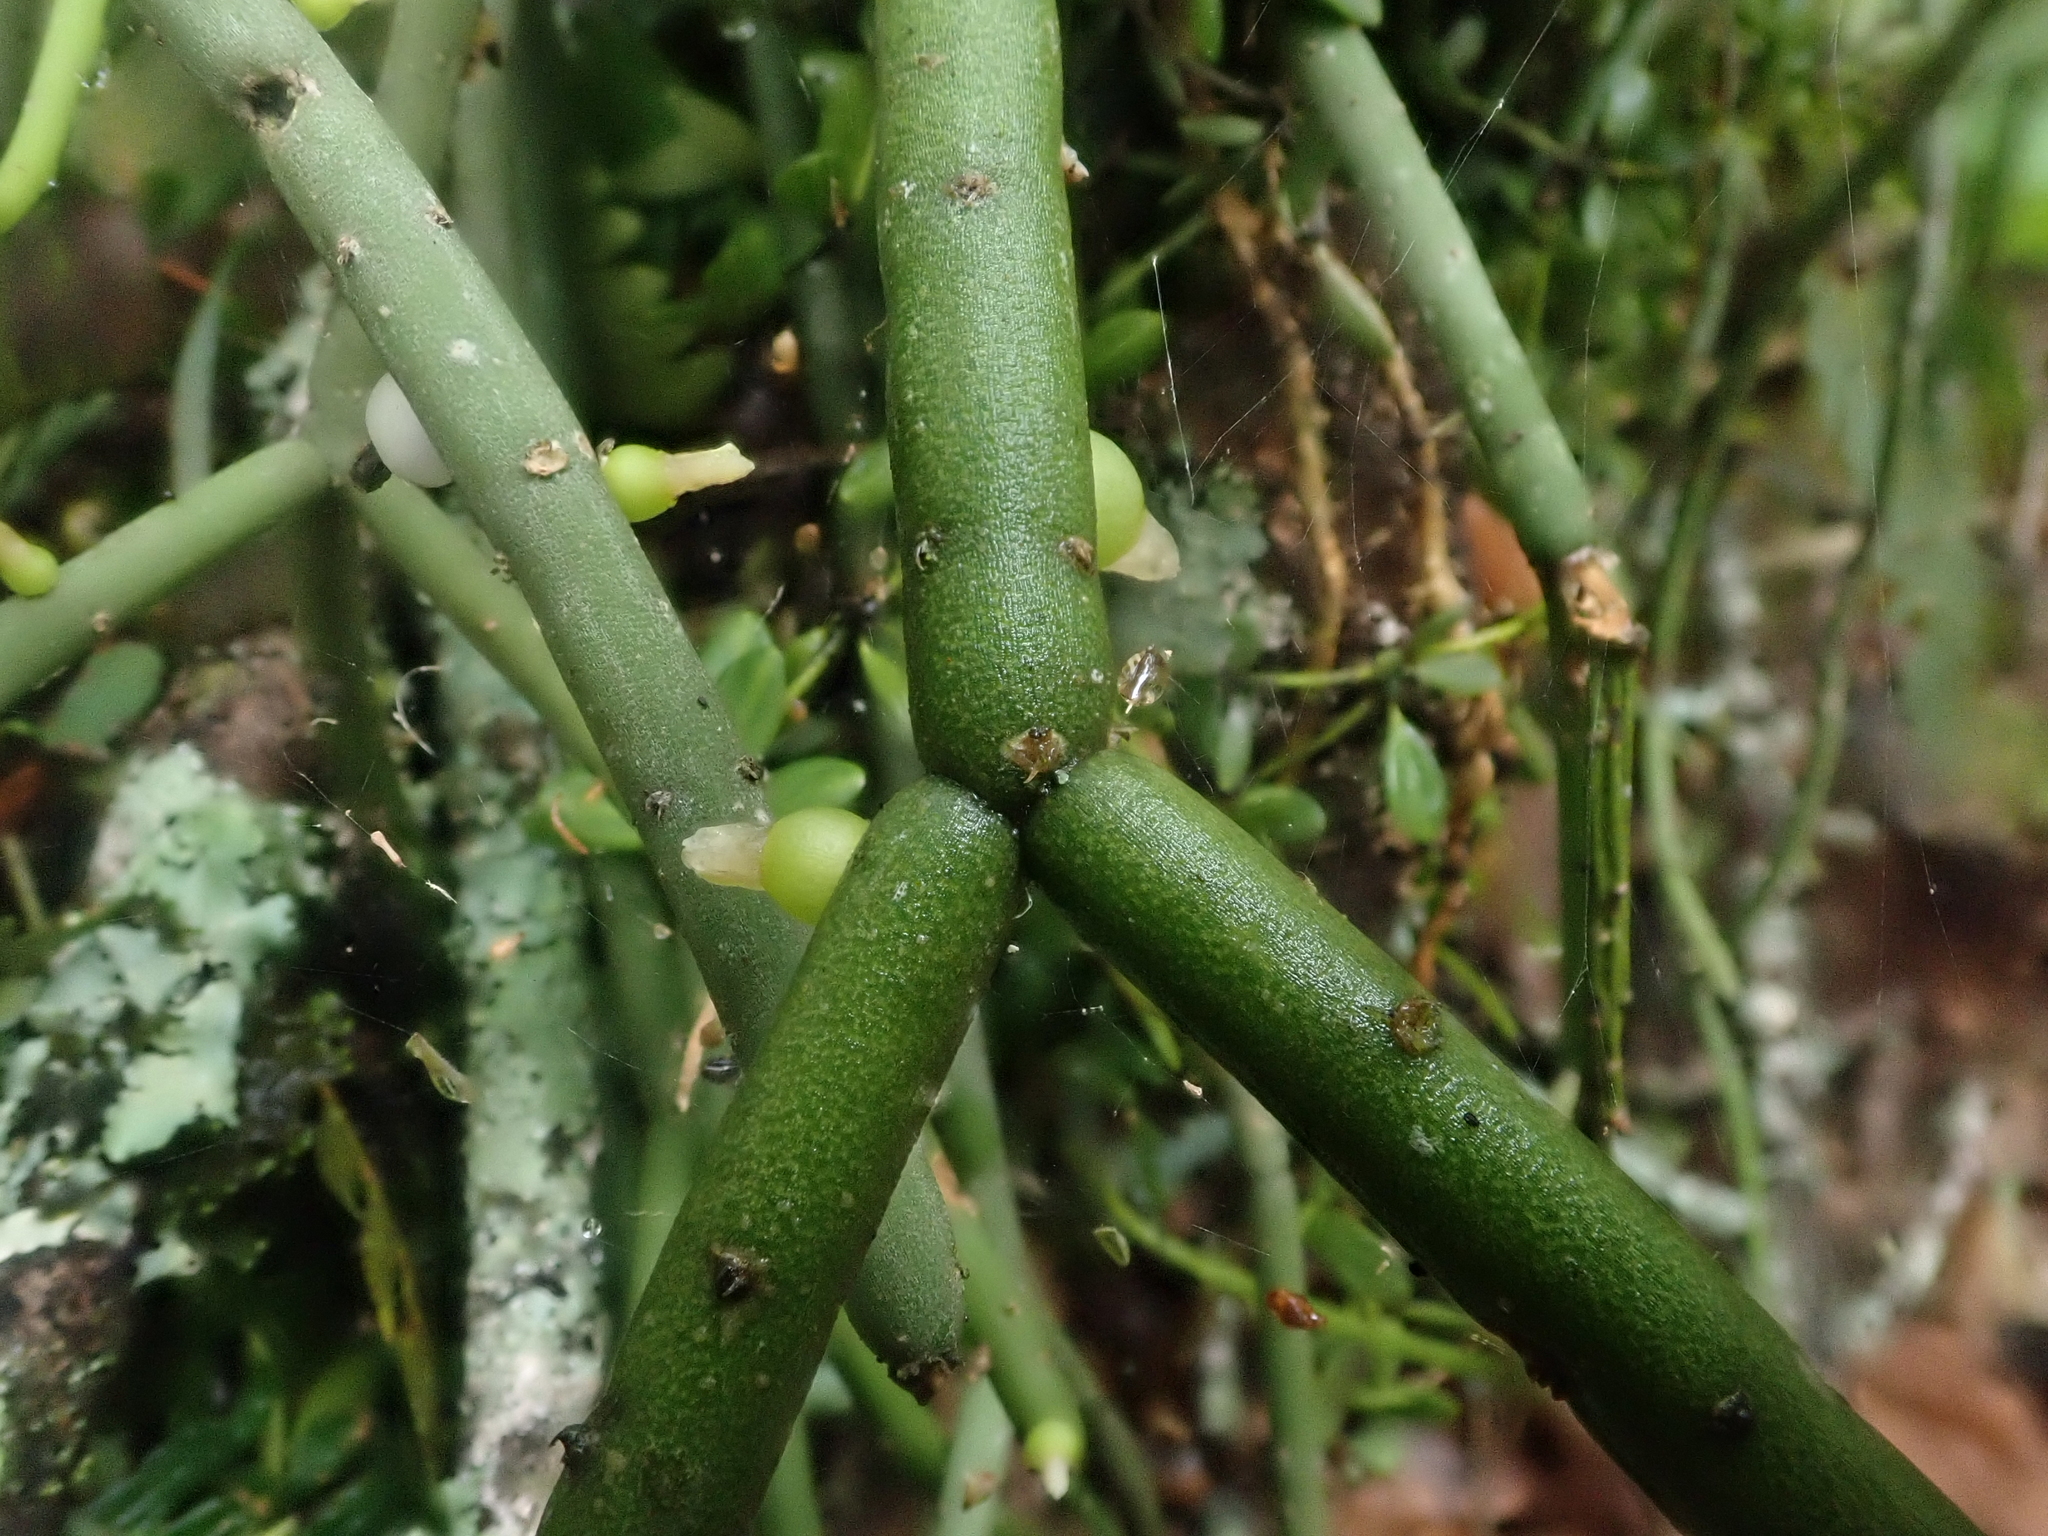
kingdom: Plantae
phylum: Tracheophyta
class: Magnoliopsida
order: Caryophyllales
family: Cactaceae
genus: Rhipsalis
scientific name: Rhipsalis floccosa
